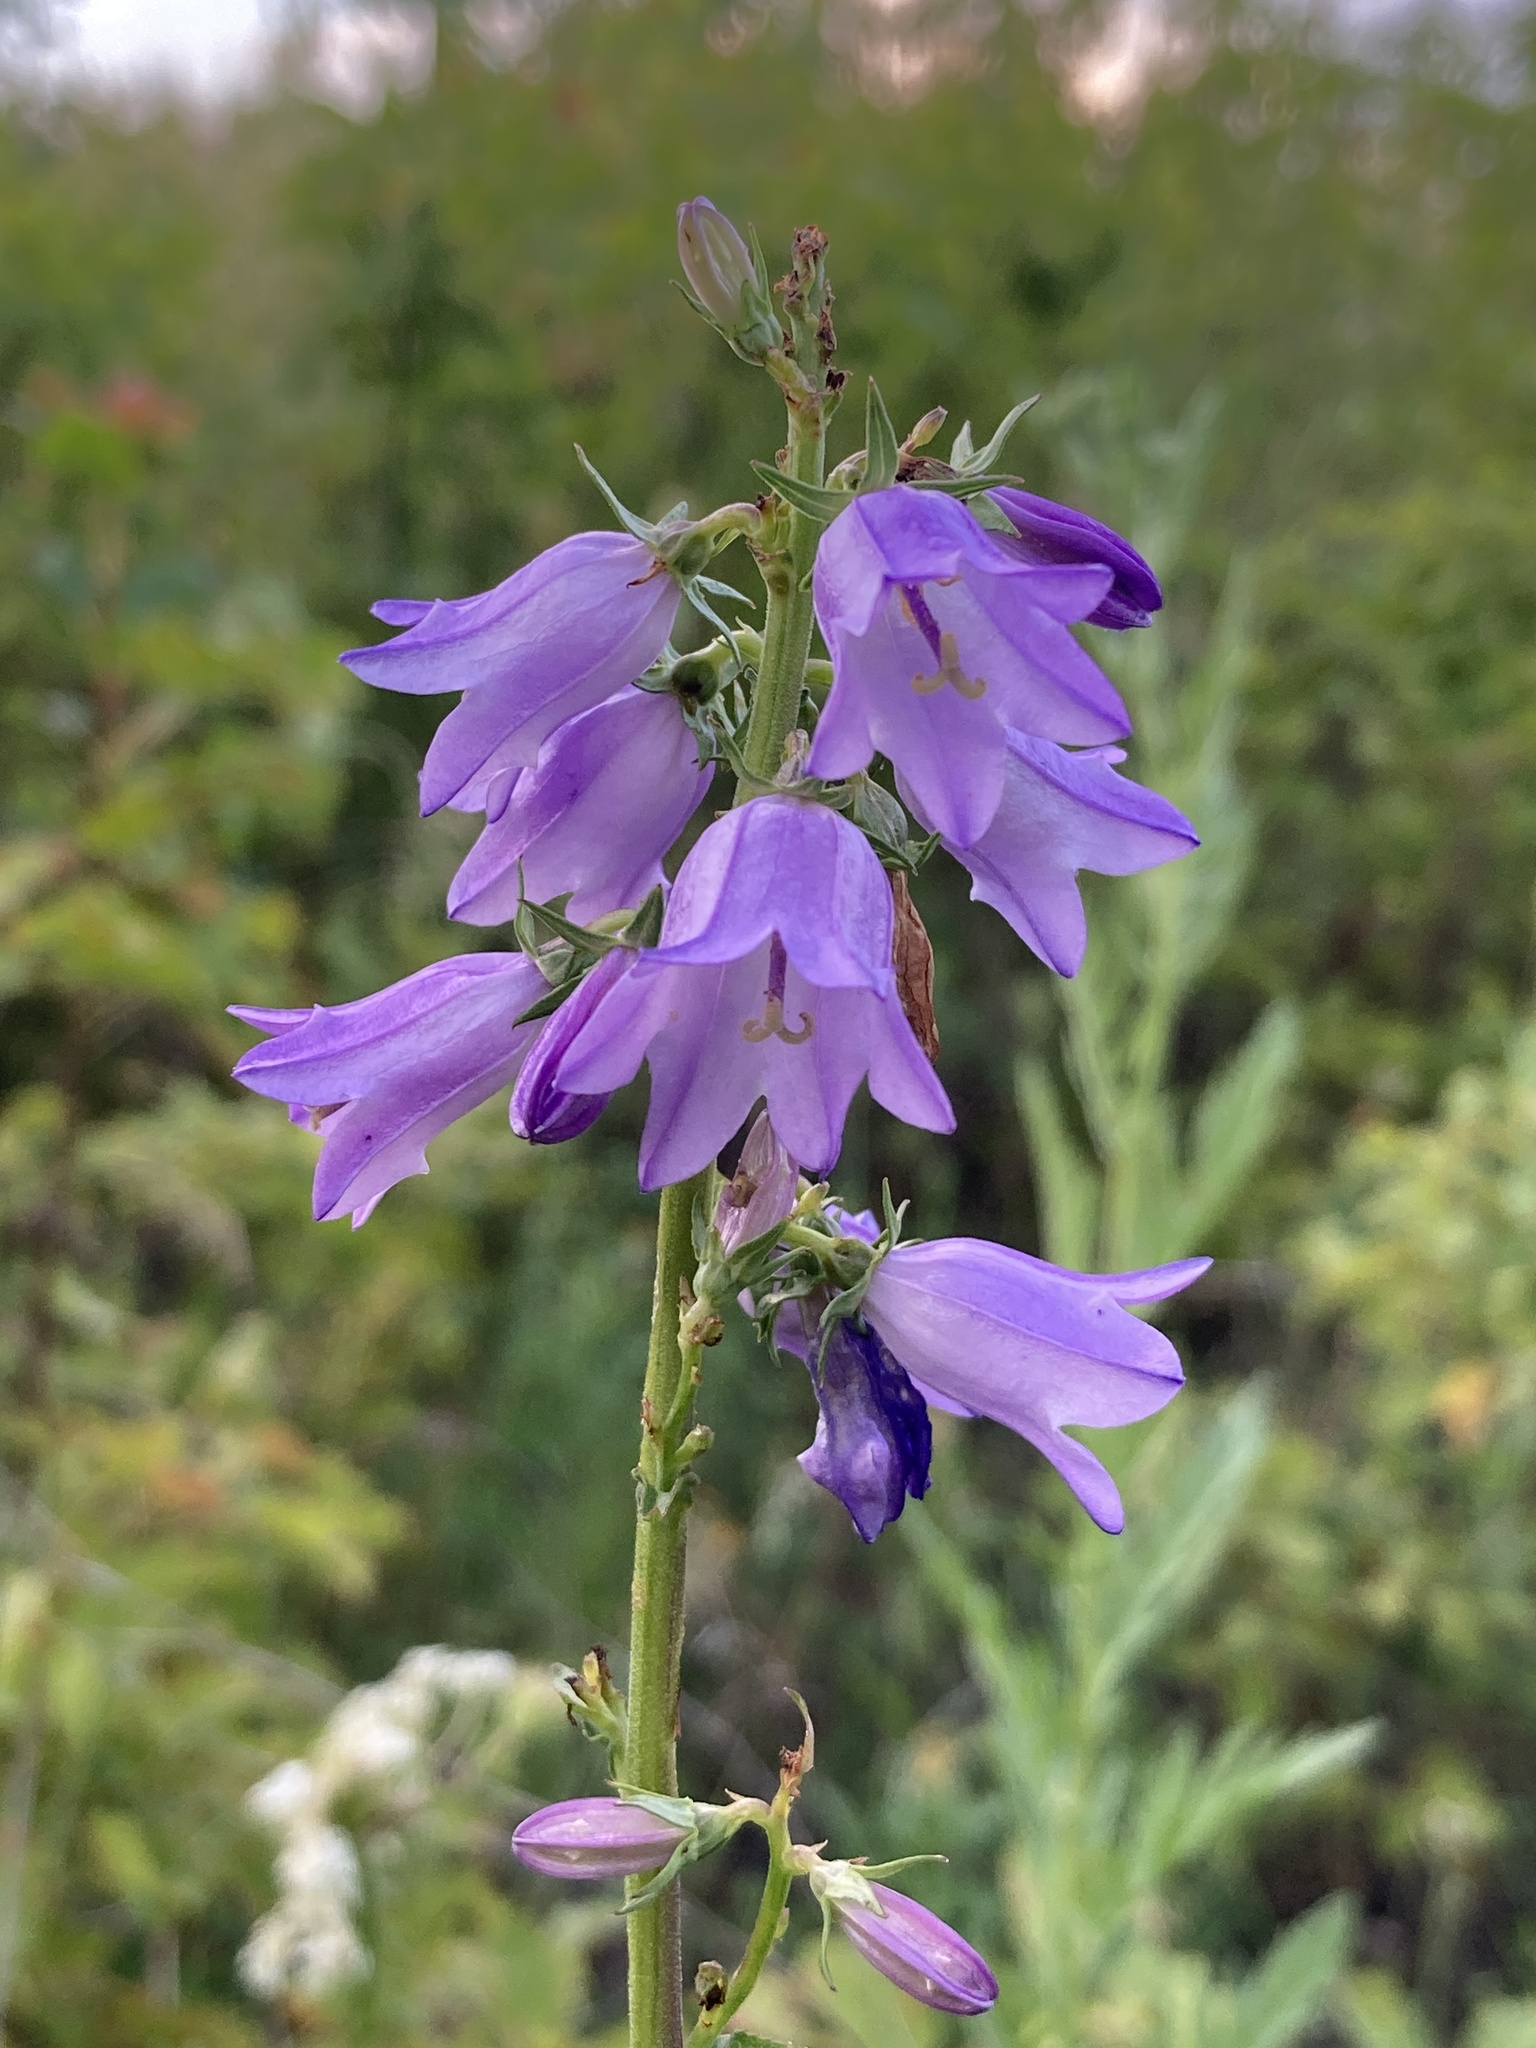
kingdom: Plantae
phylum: Tracheophyta
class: Magnoliopsida
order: Asterales
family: Campanulaceae
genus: Campanula
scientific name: Campanula bononiensis
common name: Pale bellflower
